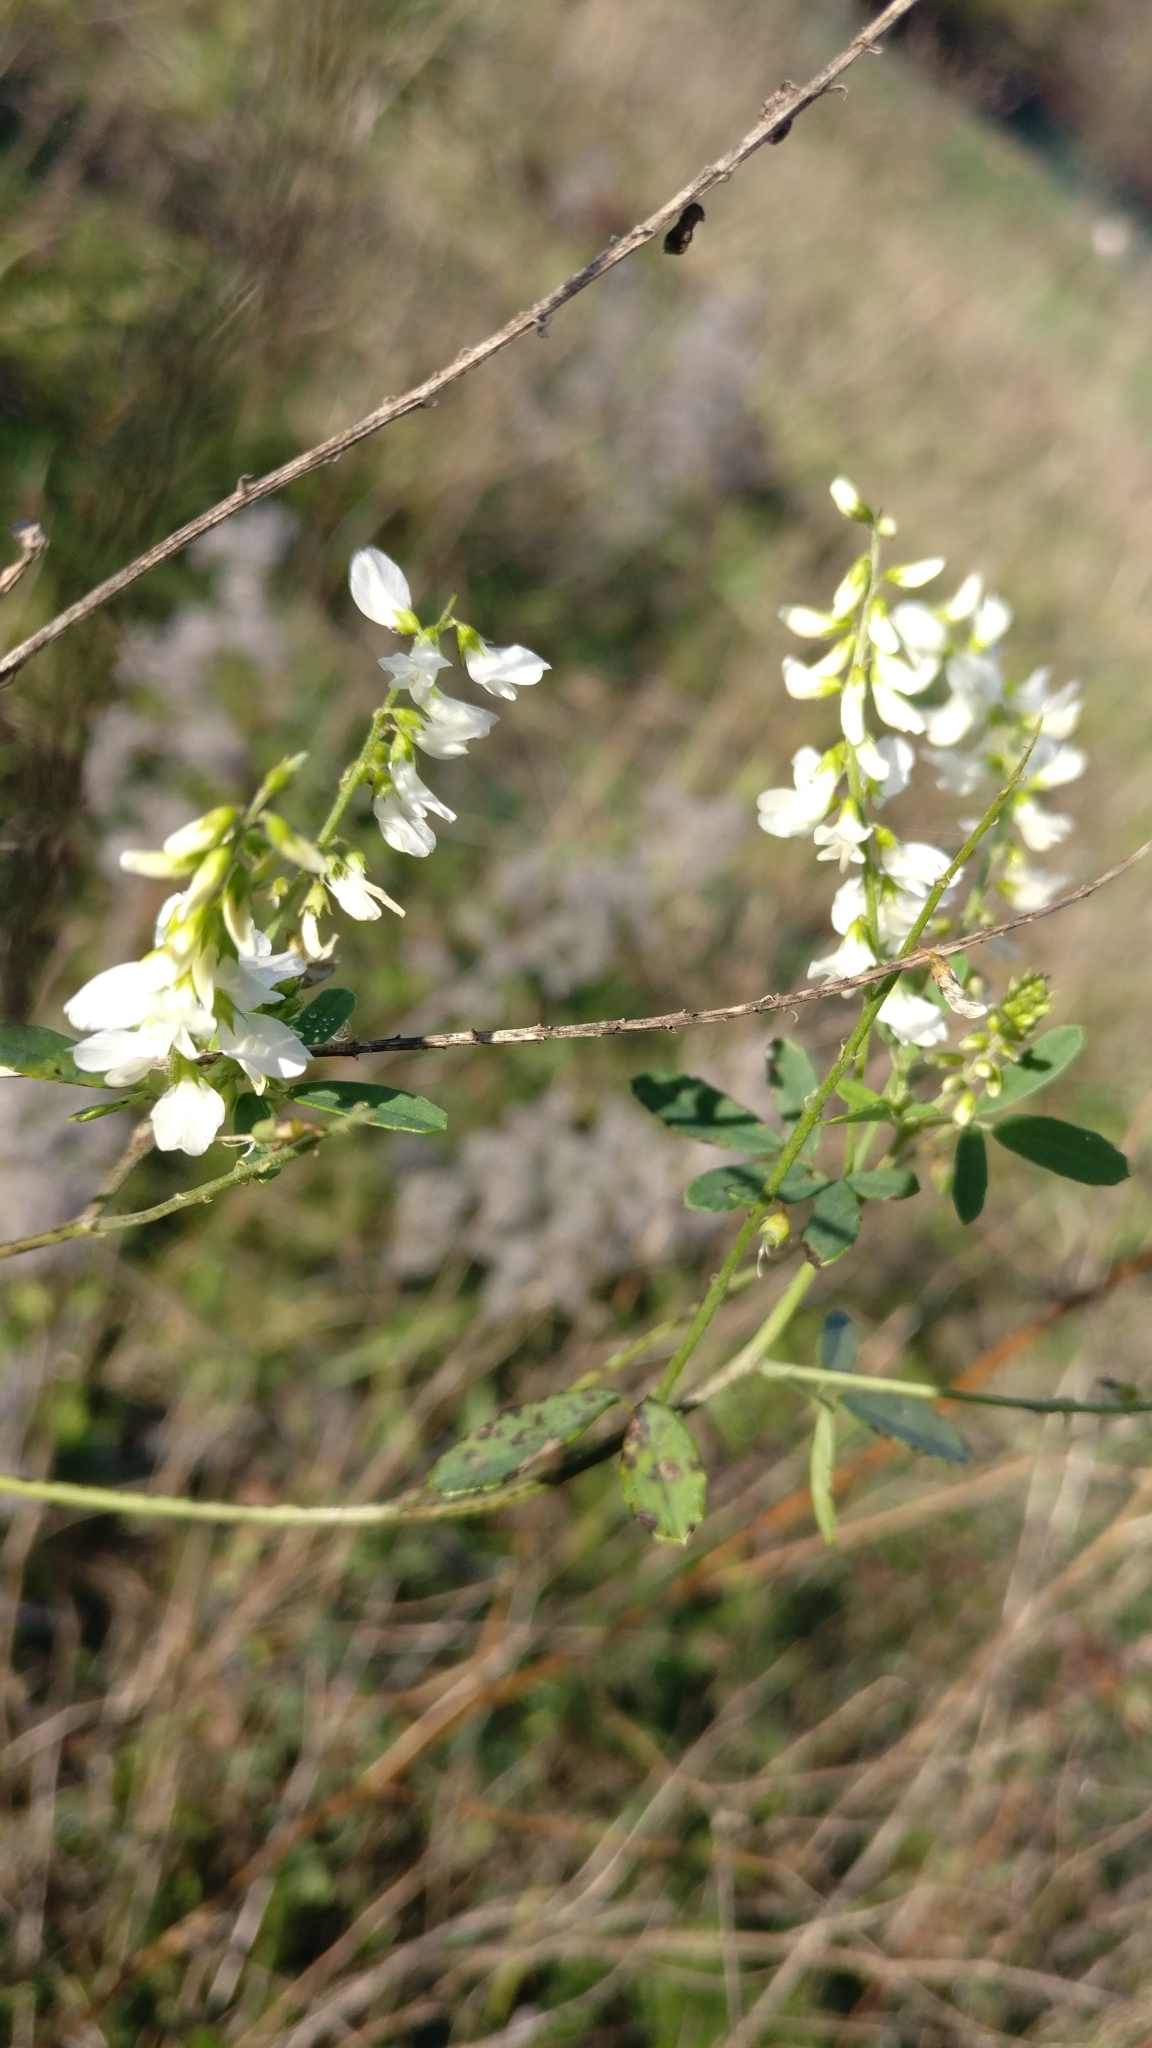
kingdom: Plantae
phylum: Tracheophyta
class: Magnoliopsida
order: Fabales
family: Fabaceae
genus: Melilotus
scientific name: Melilotus albus
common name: White melilot
